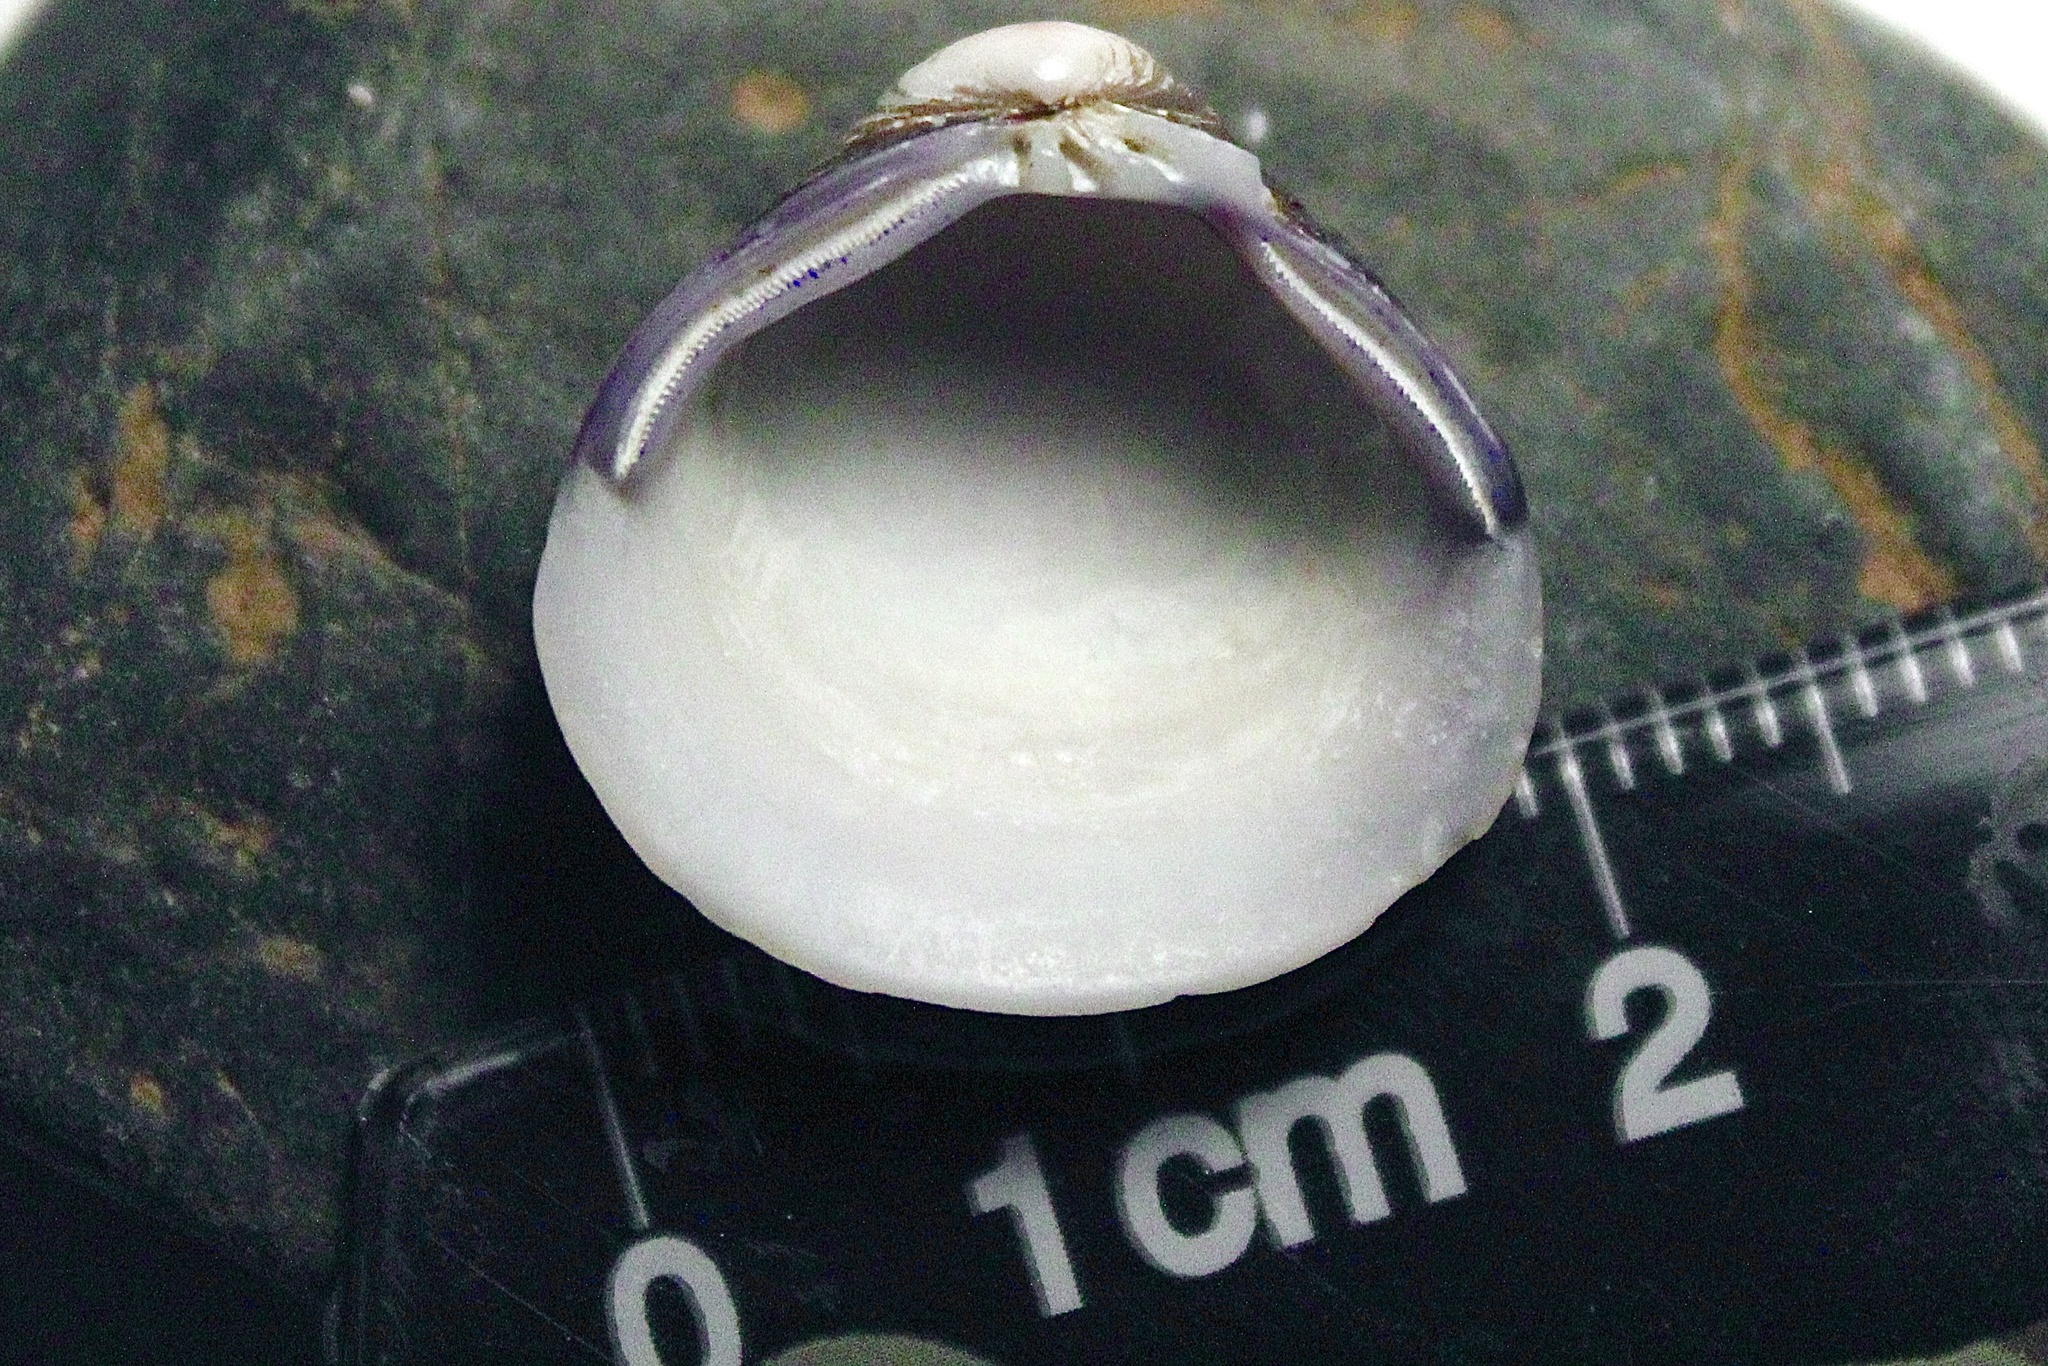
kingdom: Animalia
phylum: Mollusca
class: Bivalvia
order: Venerida
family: Cyrenidae
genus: Corbicula
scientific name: Corbicula
